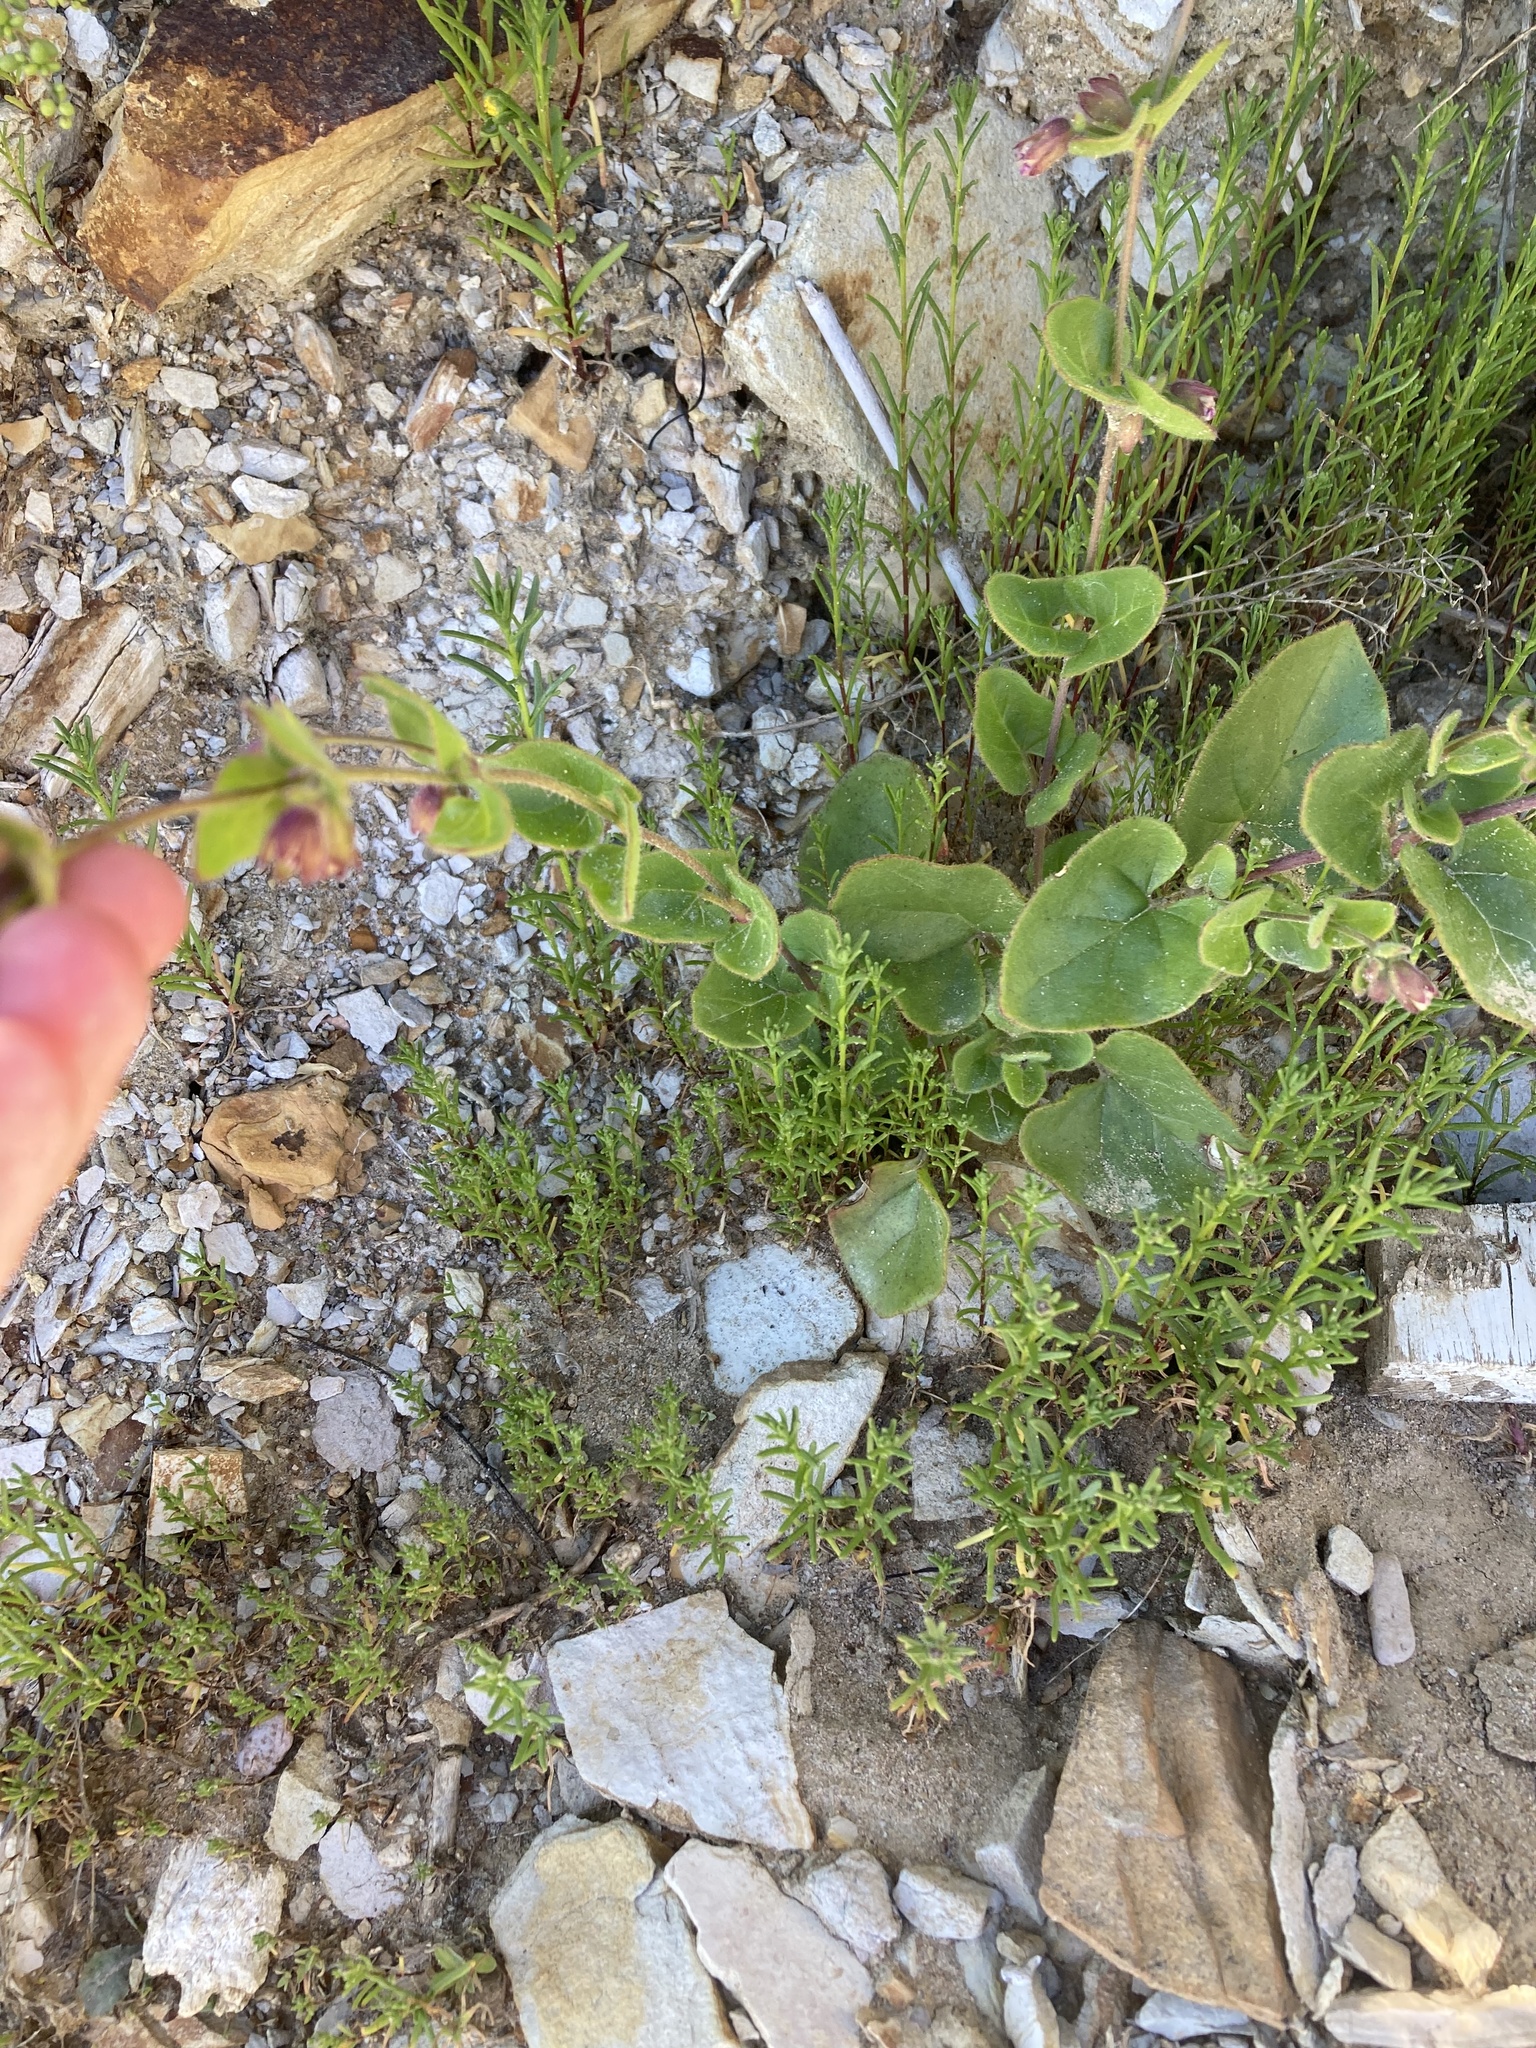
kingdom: Plantae
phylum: Tracheophyta
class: Magnoliopsida
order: Caryophyllales
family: Nyctaginaceae
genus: Mirabilis
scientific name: Mirabilis laevis
